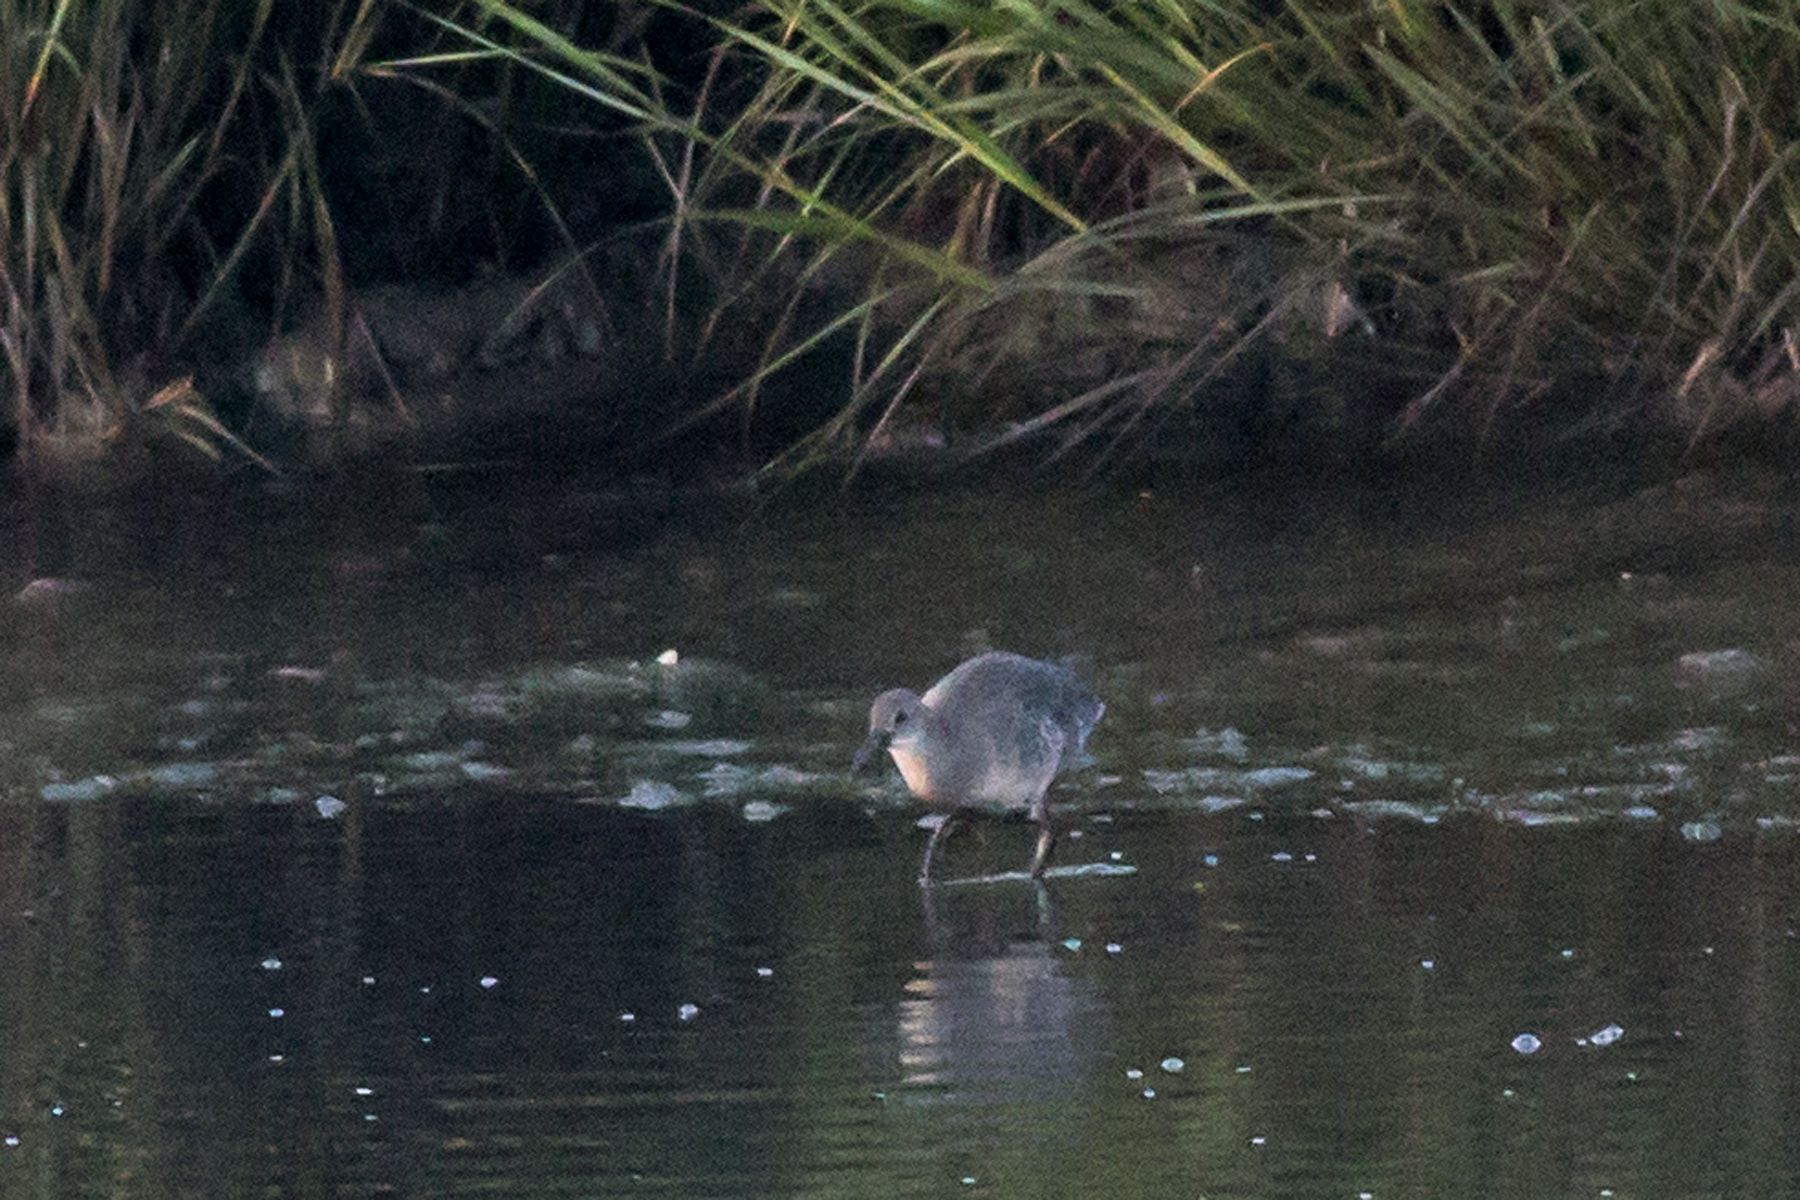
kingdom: Animalia
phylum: Chordata
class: Aves
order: Gruiformes
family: Rallidae
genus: Rallus
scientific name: Rallus crepitans
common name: Clapper rail
